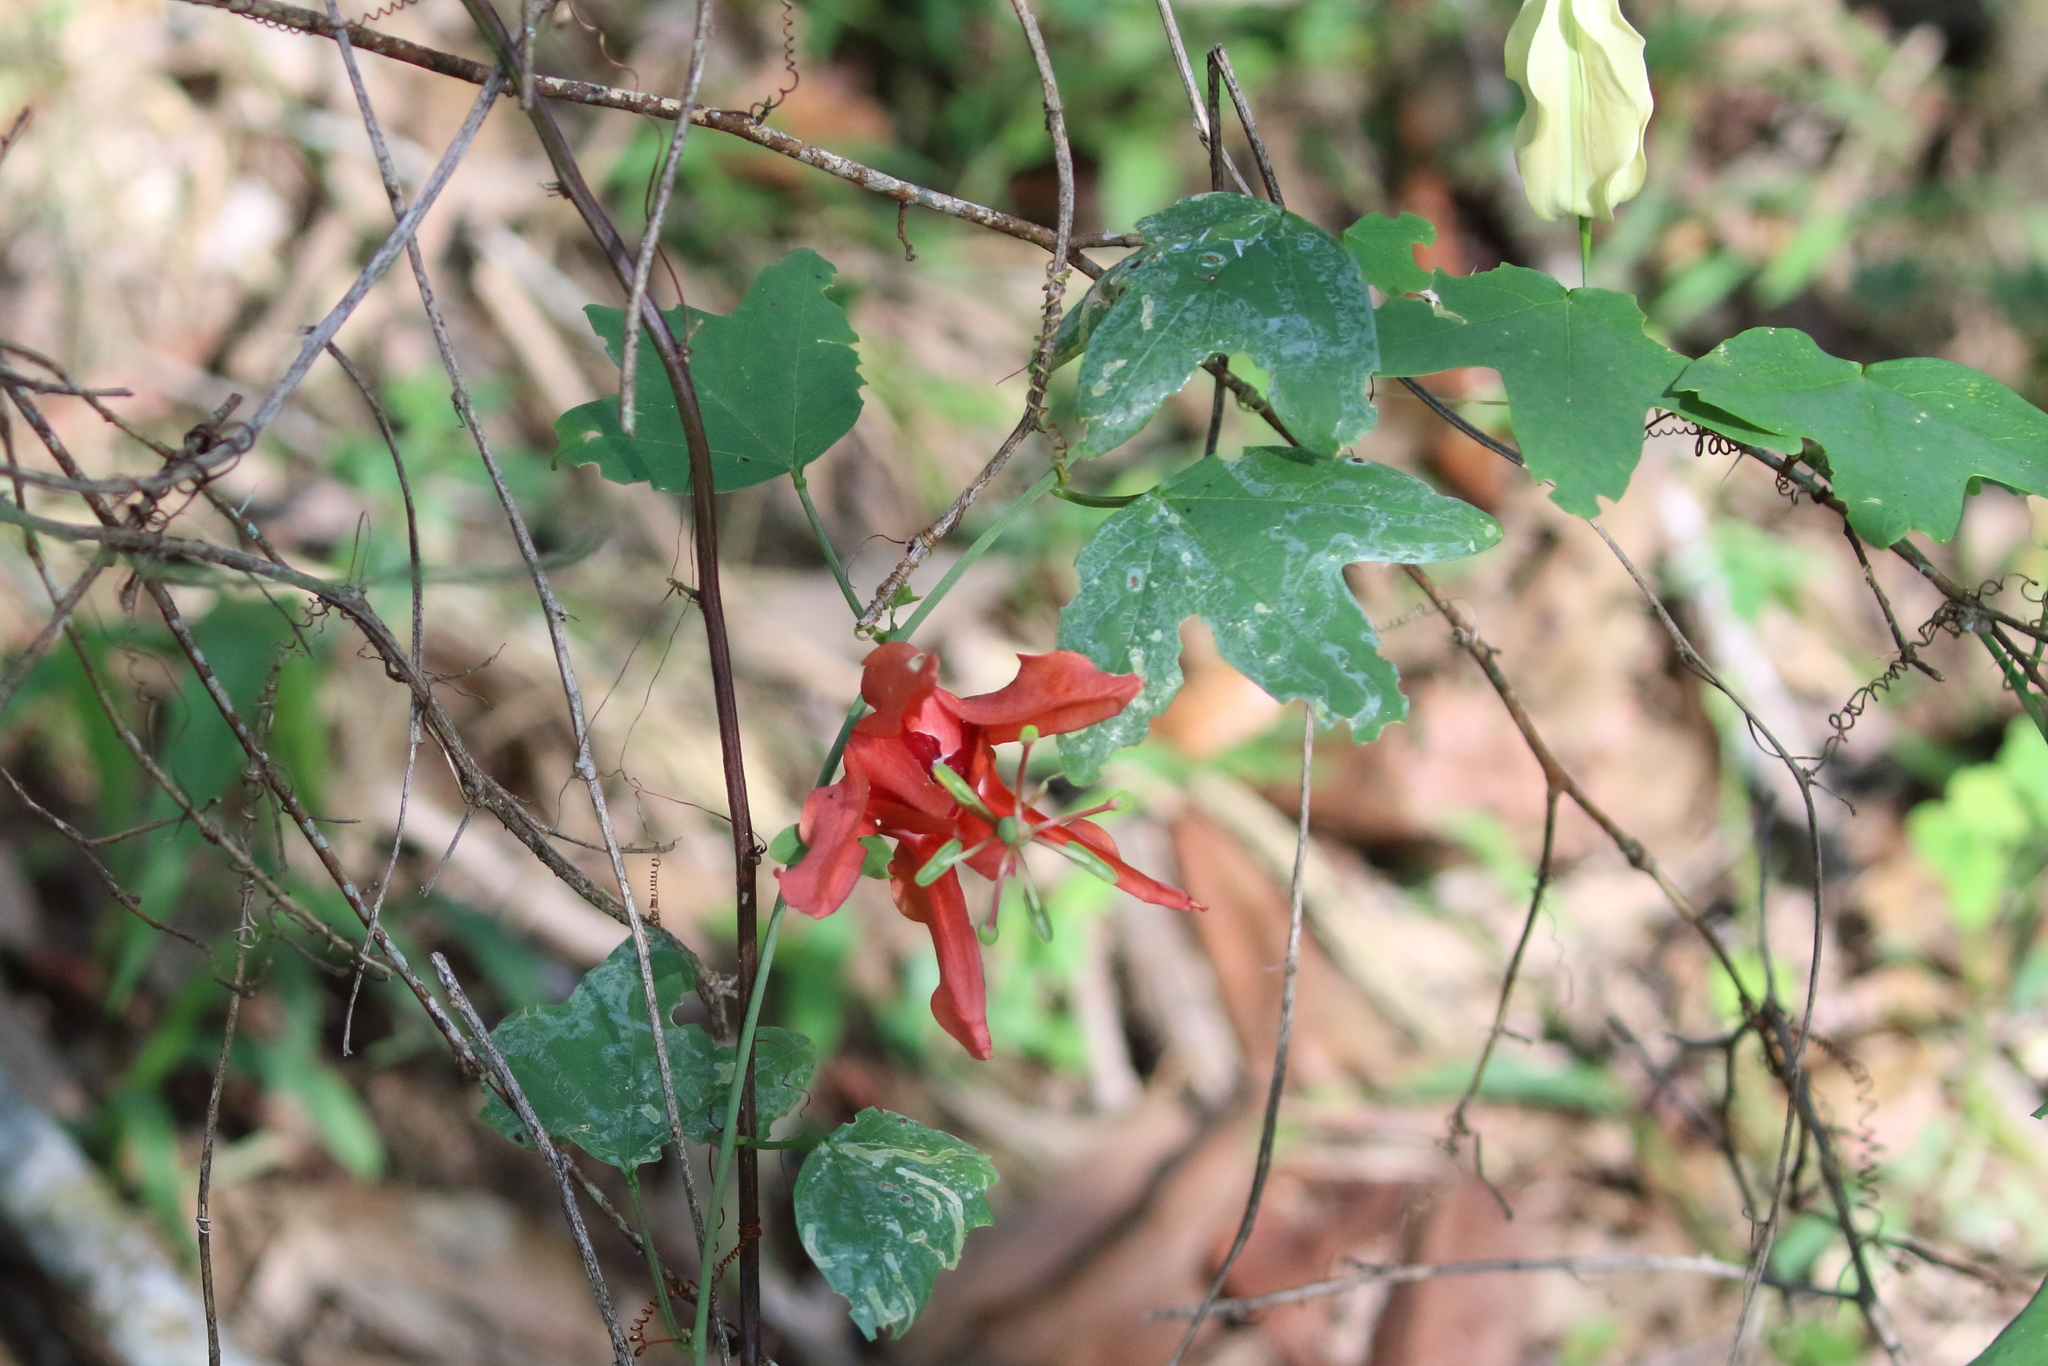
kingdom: Plantae
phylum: Tracheophyta
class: Magnoliopsida
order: Malpighiales
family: Passifloraceae
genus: Passiflora
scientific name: Passiflora aurantia
